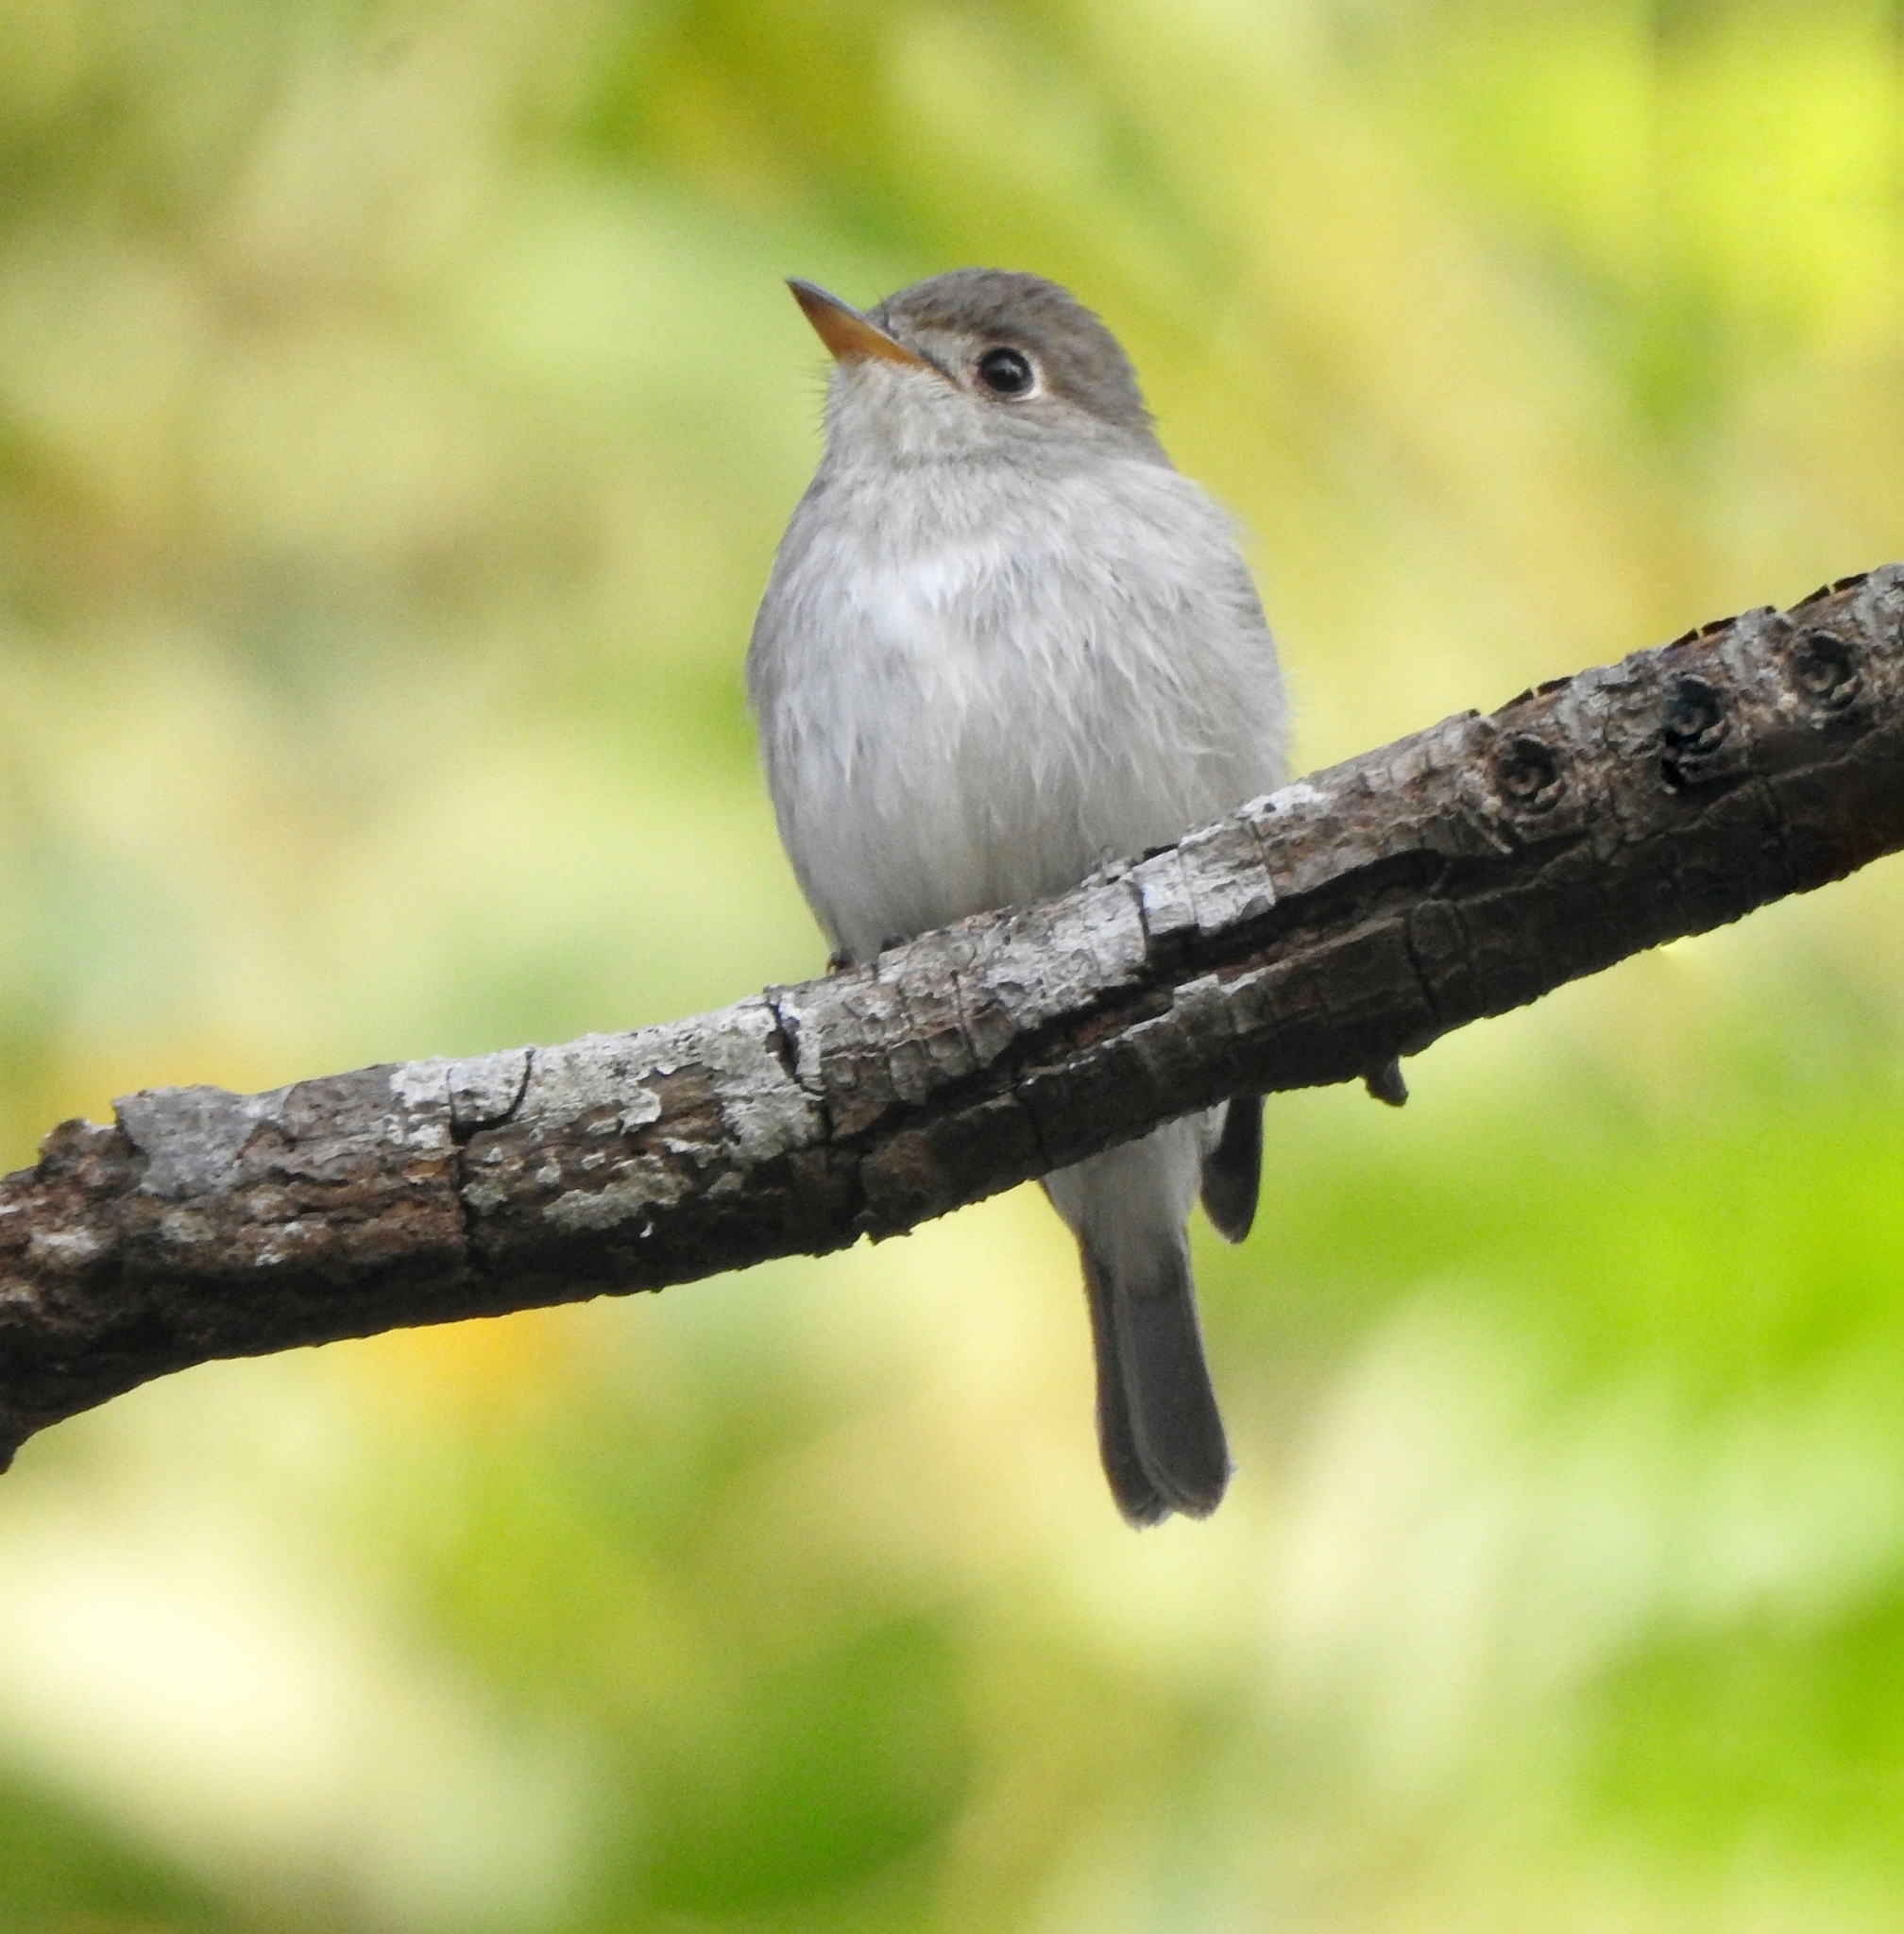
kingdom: Animalia
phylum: Chordata
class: Aves
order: Passeriformes
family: Muscicapidae
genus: Muscicapa
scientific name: Muscicapa latirostris
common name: Asian brown flycatcher
